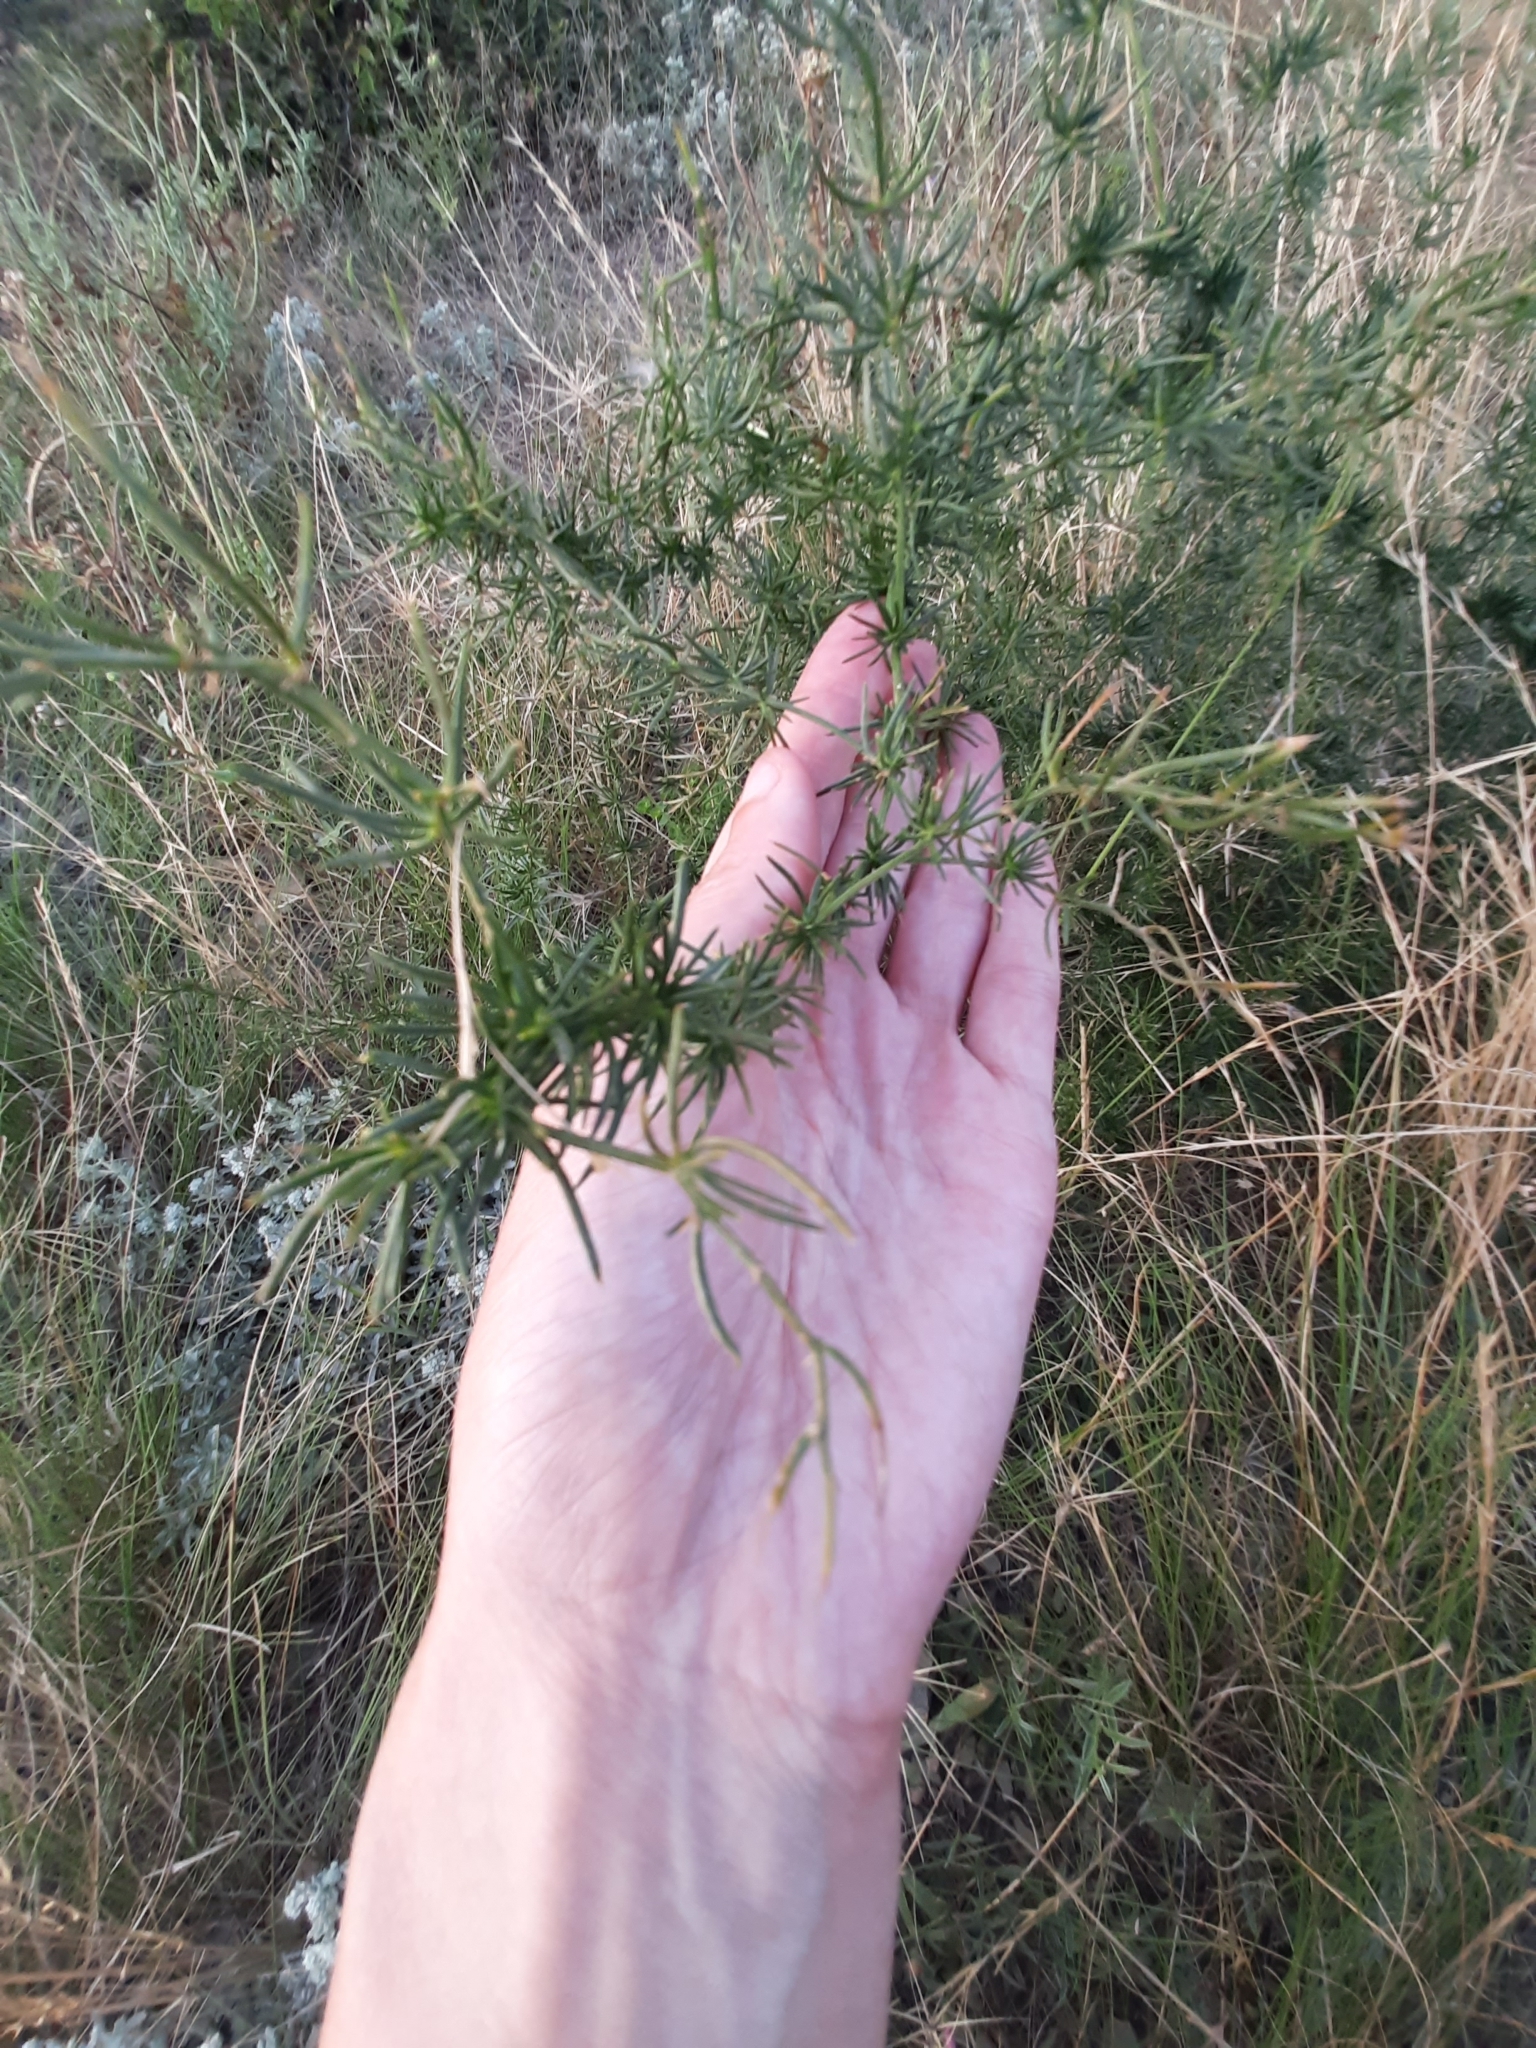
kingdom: Plantae
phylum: Tracheophyta
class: Liliopsida
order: Asparagales
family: Asparagaceae
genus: Asparagus
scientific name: Asparagus verticillatus
